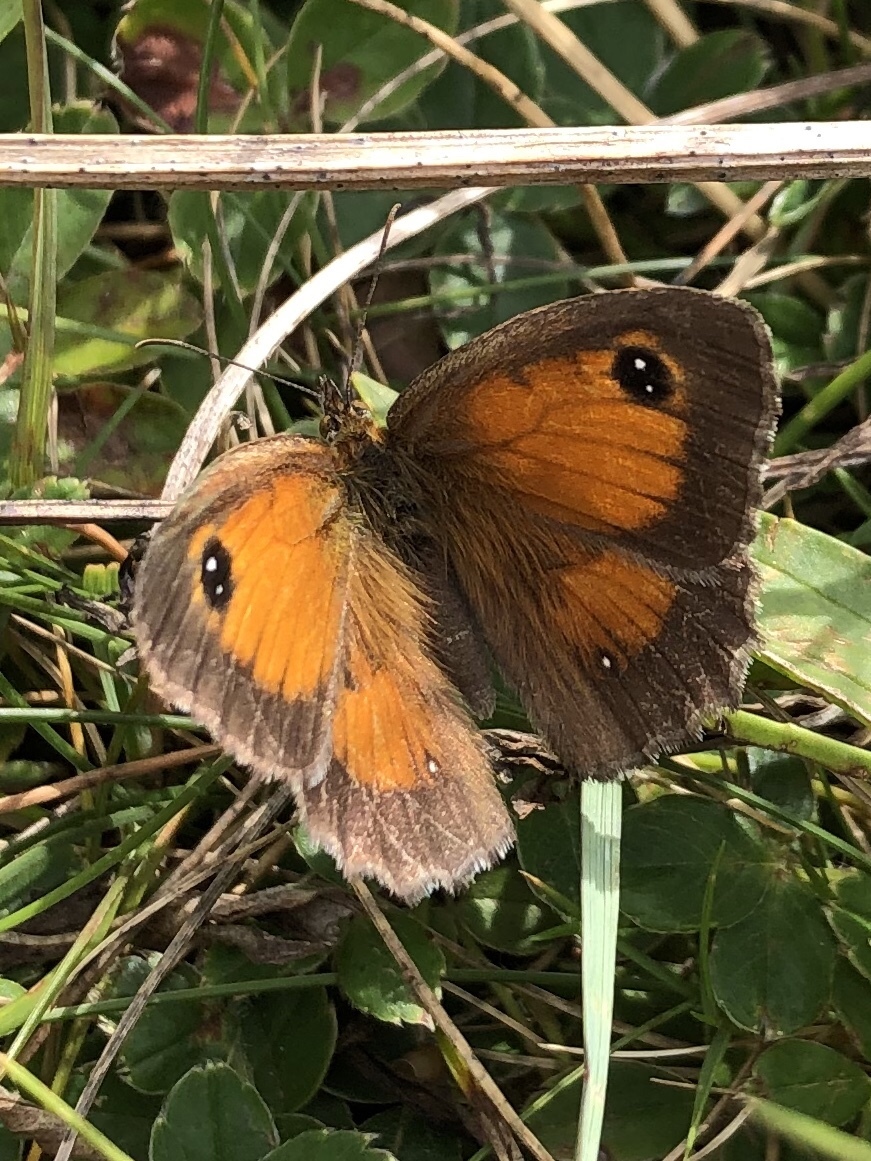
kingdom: Animalia
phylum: Arthropoda
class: Insecta
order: Lepidoptera
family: Nymphalidae
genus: Pyronia
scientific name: Pyronia tithonus
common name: Gatekeeper
